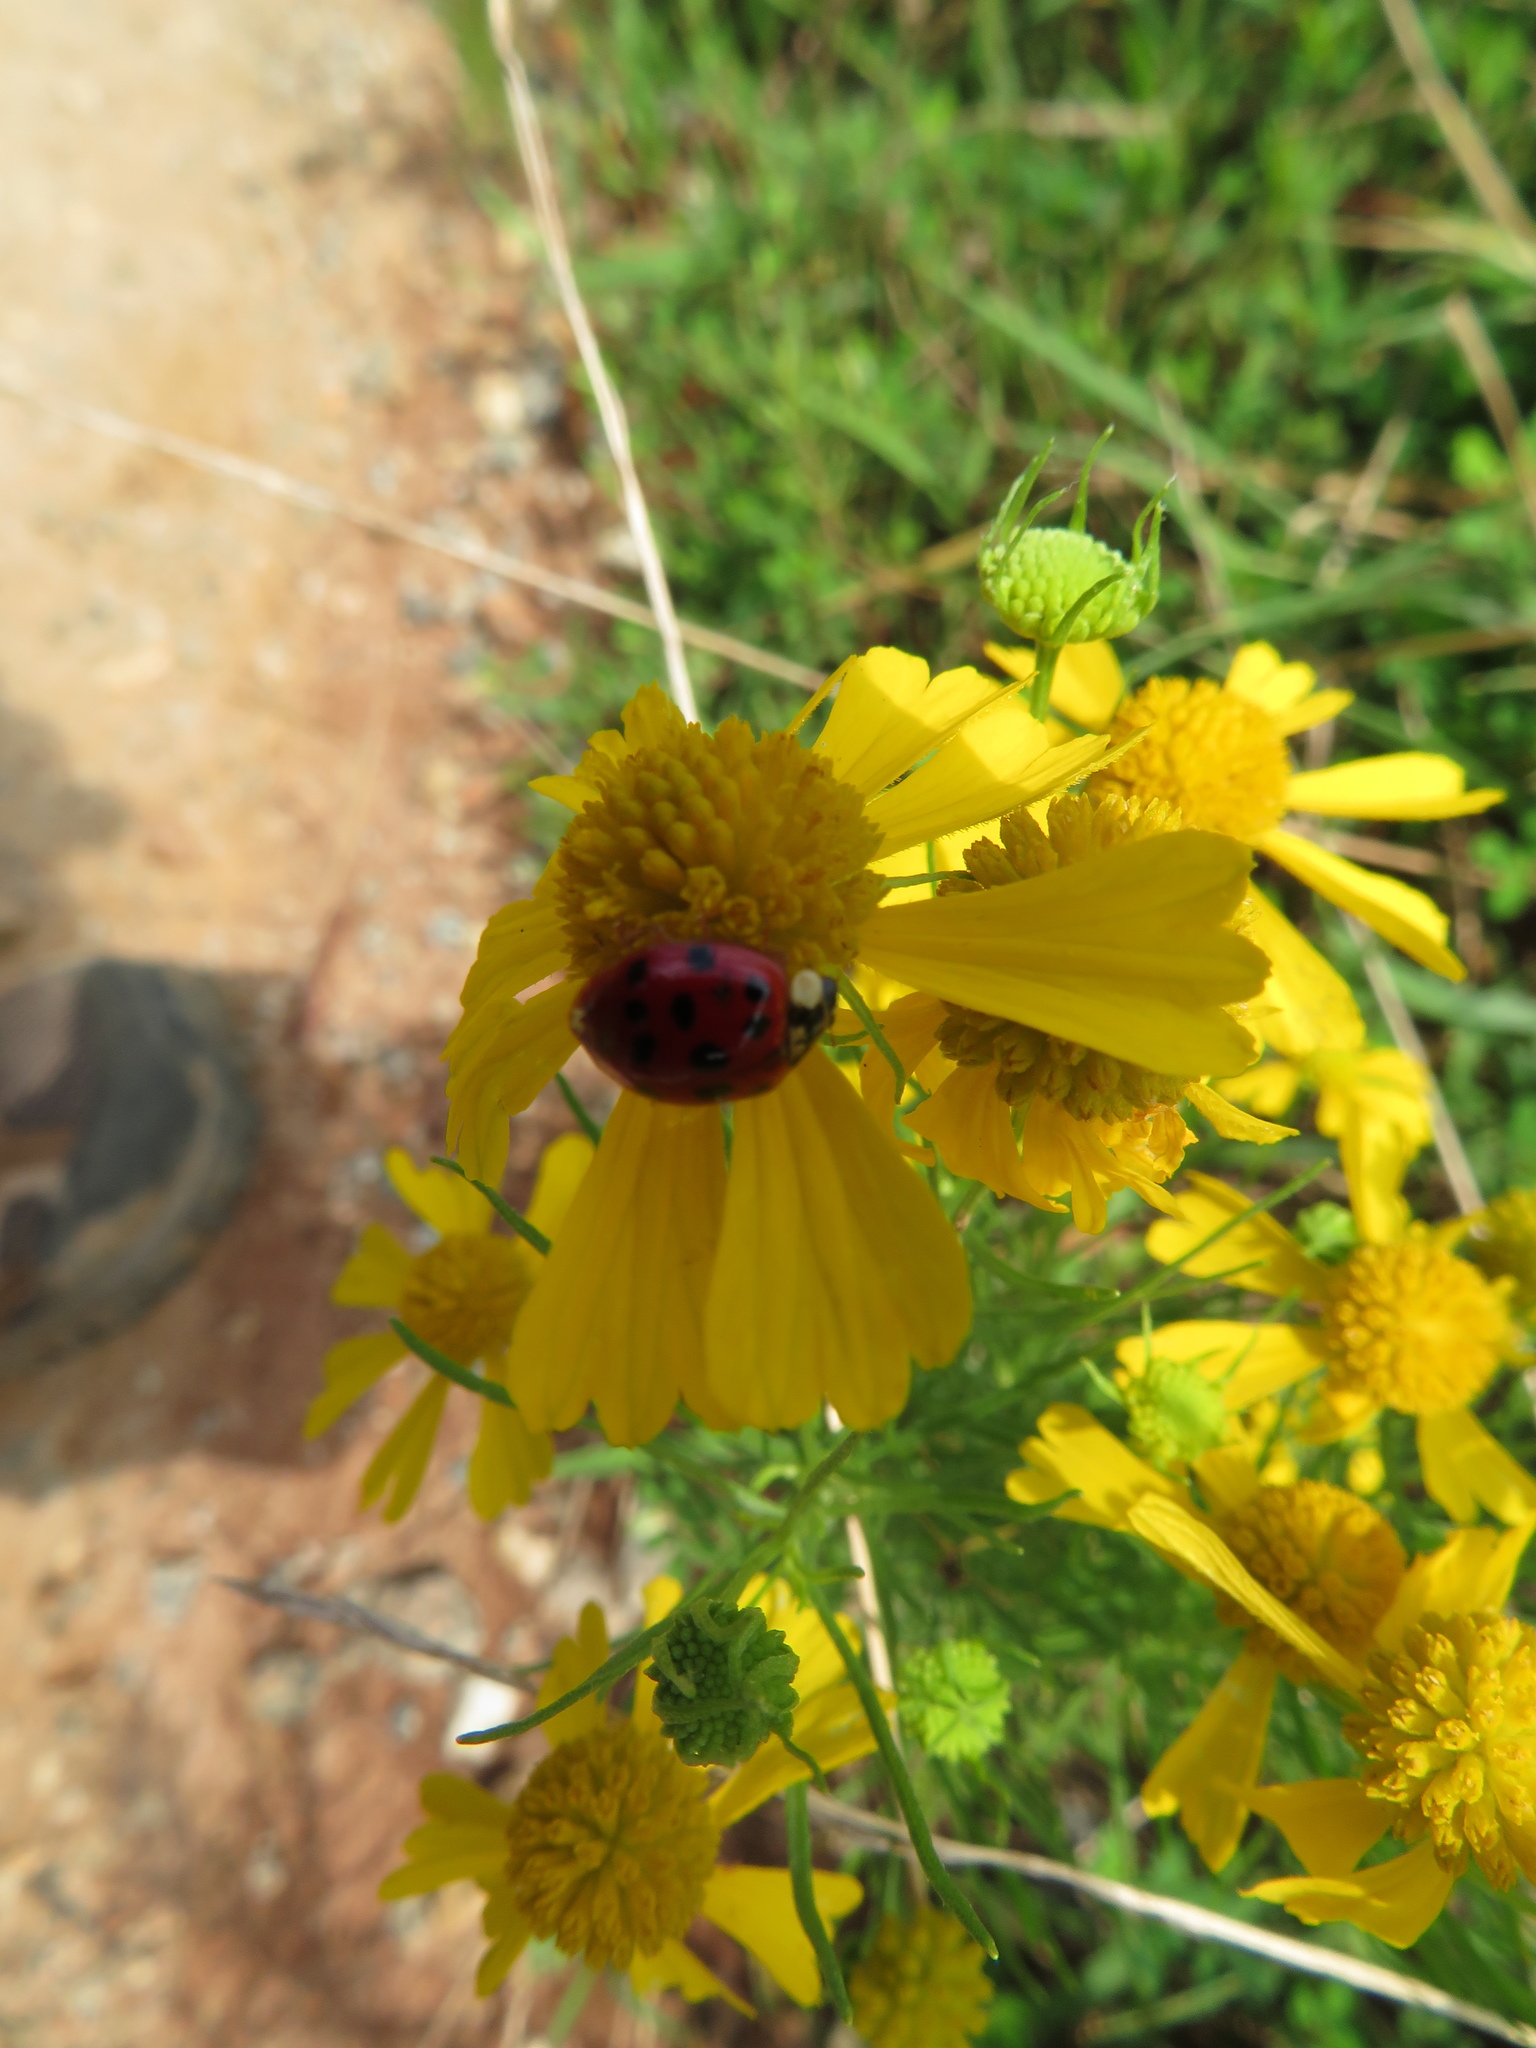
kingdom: Animalia
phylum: Arthropoda
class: Insecta
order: Coleoptera
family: Coccinellidae
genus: Harmonia
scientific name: Harmonia axyridis
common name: Harlequin ladybird
